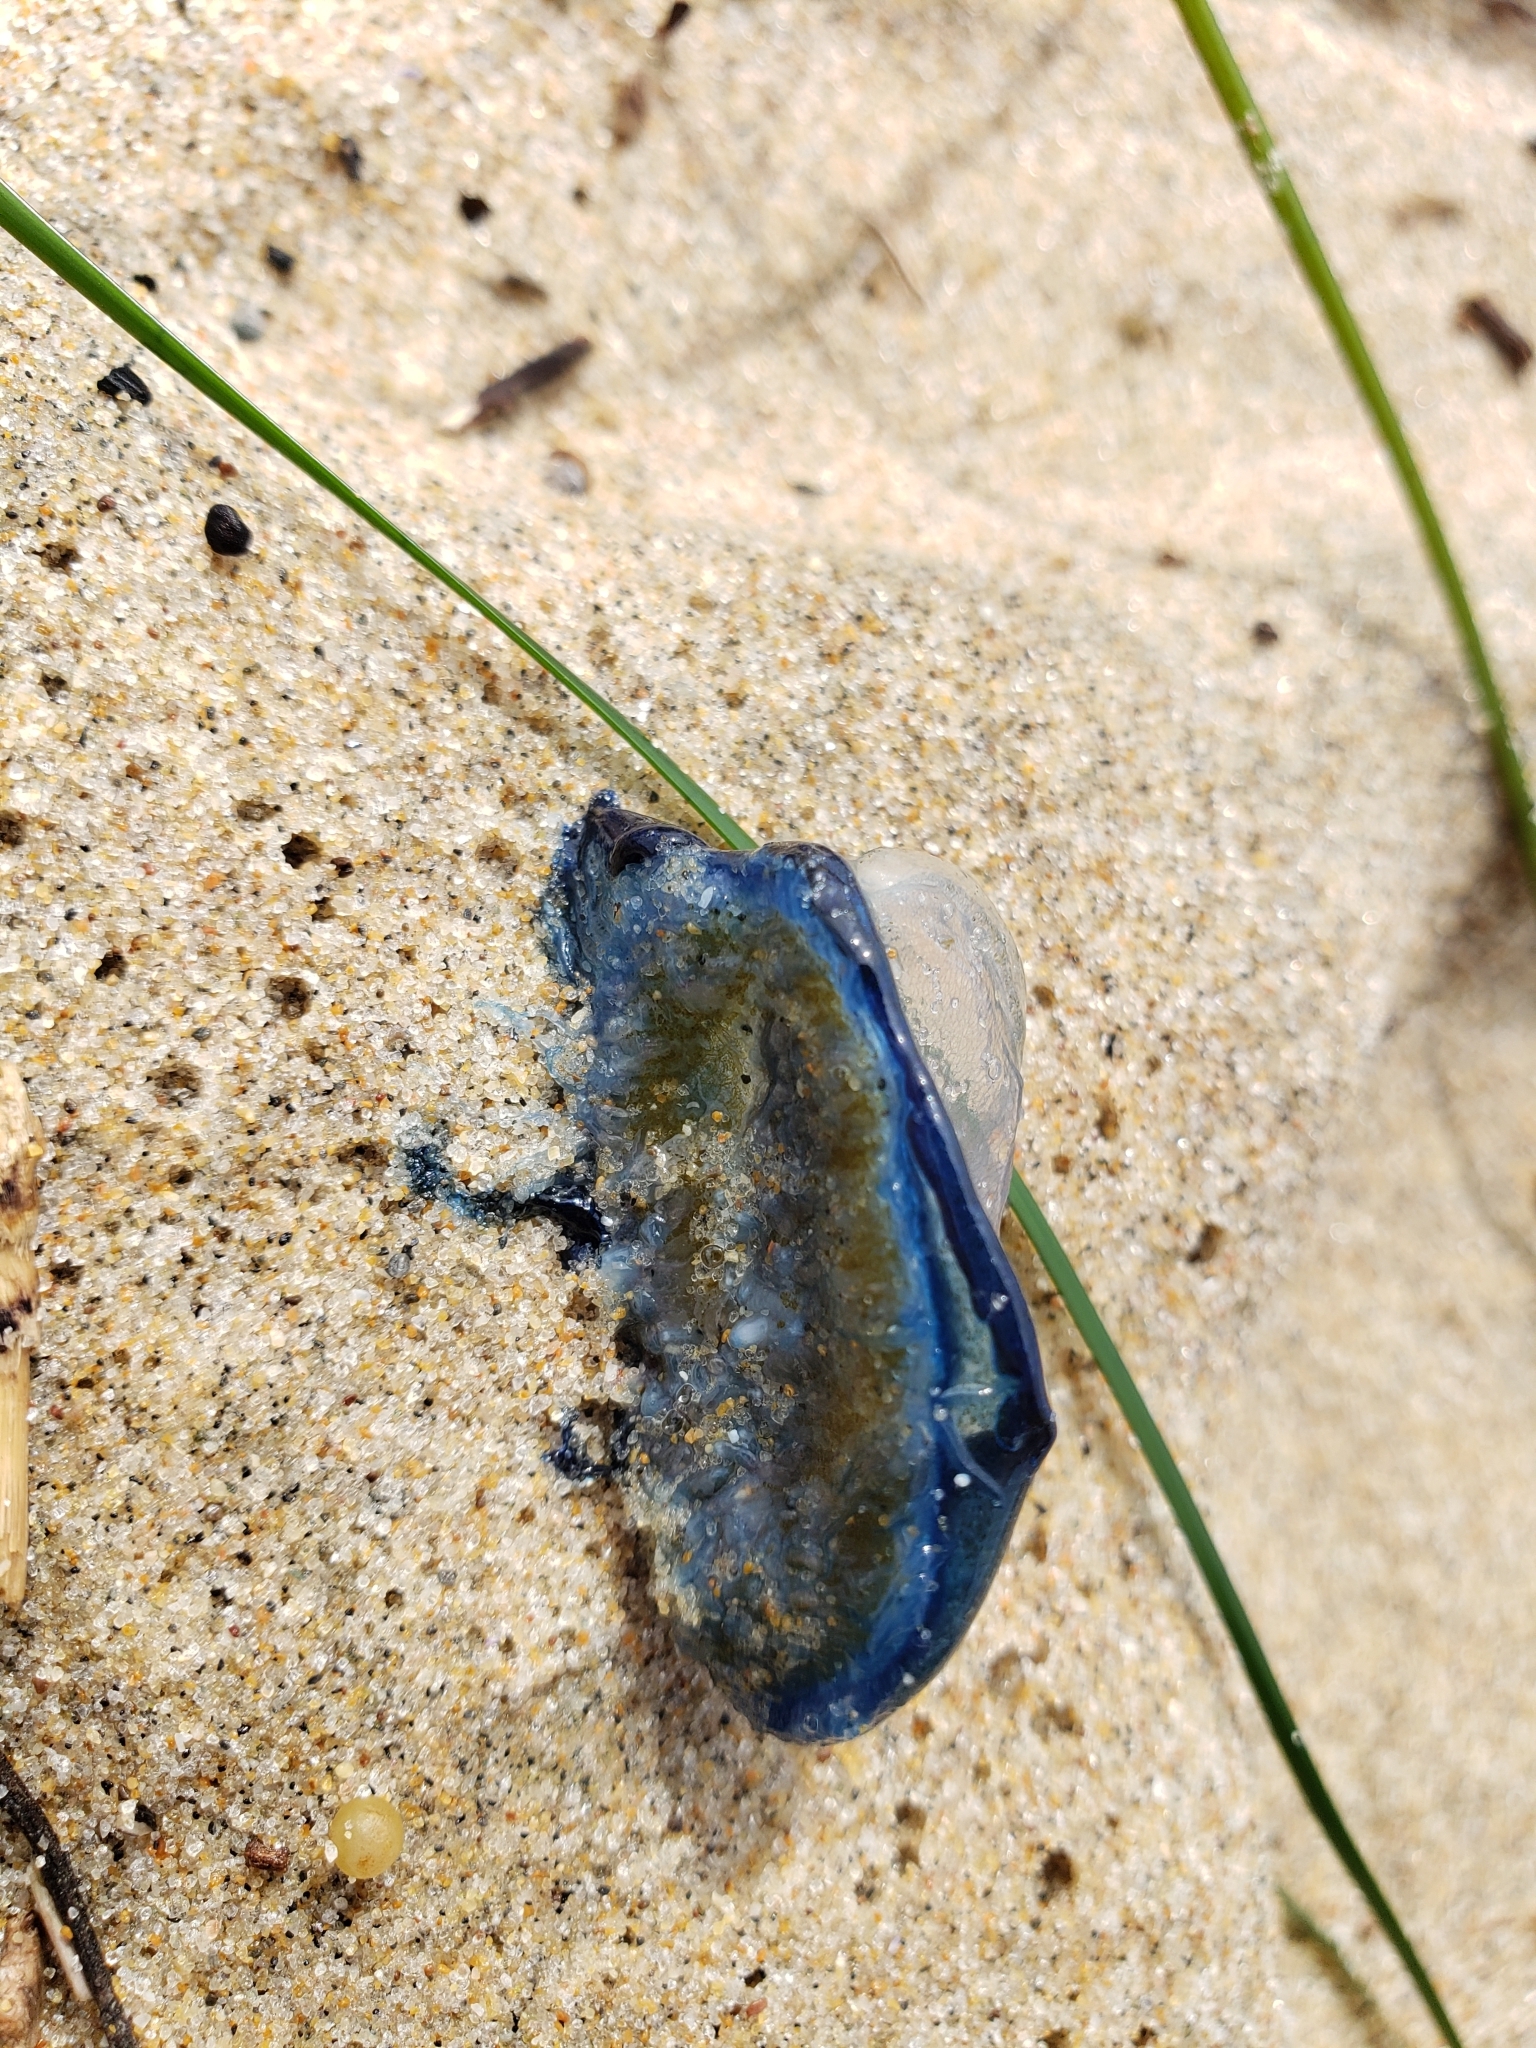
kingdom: Animalia
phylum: Cnidaria
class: Hydrozoa
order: Anthoathecata
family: Porpitidae
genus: Velella
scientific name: Velella velella
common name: By-the-wind-sailor
